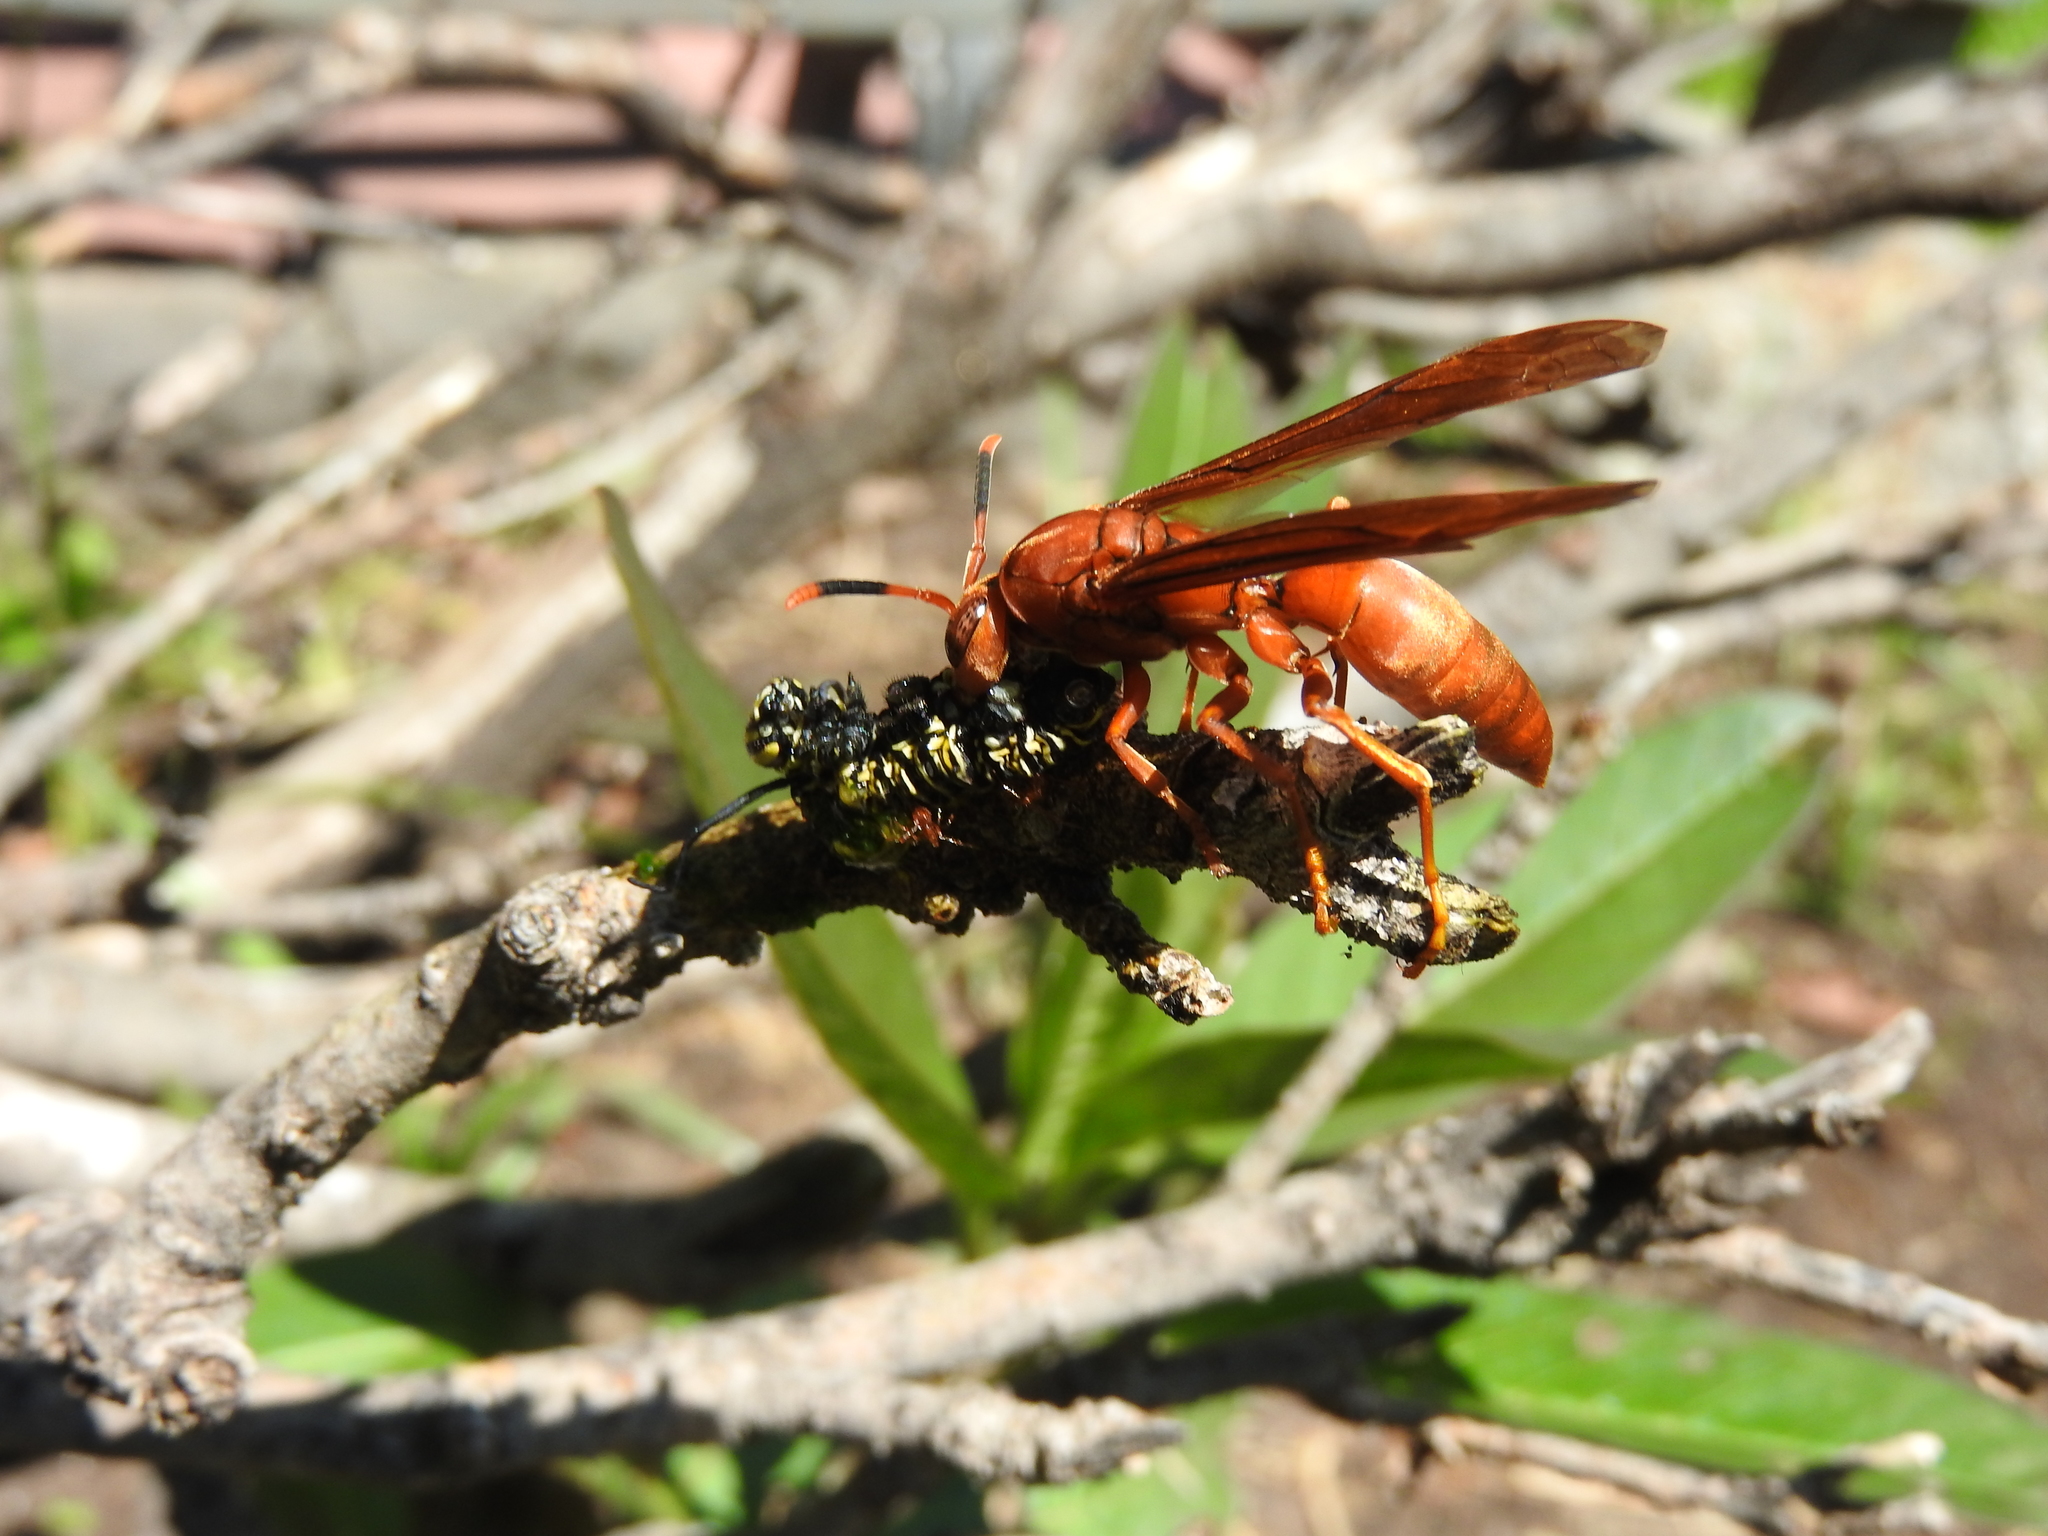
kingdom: Animalia
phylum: Arthropoda
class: Insecta
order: Lepidoptera
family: Nymphalidae
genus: Danaus
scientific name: Danaus plexippus
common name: Monarch
